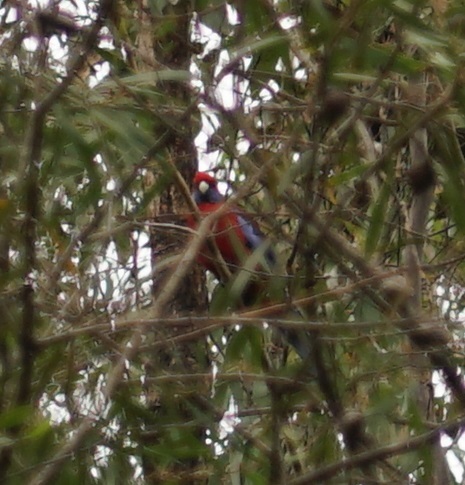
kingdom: Animalia
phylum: Chordata
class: Aves
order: Psittaciformes
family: Psittacidae
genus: Platycercus
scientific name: Platycercus elegans
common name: Crimson rosella
